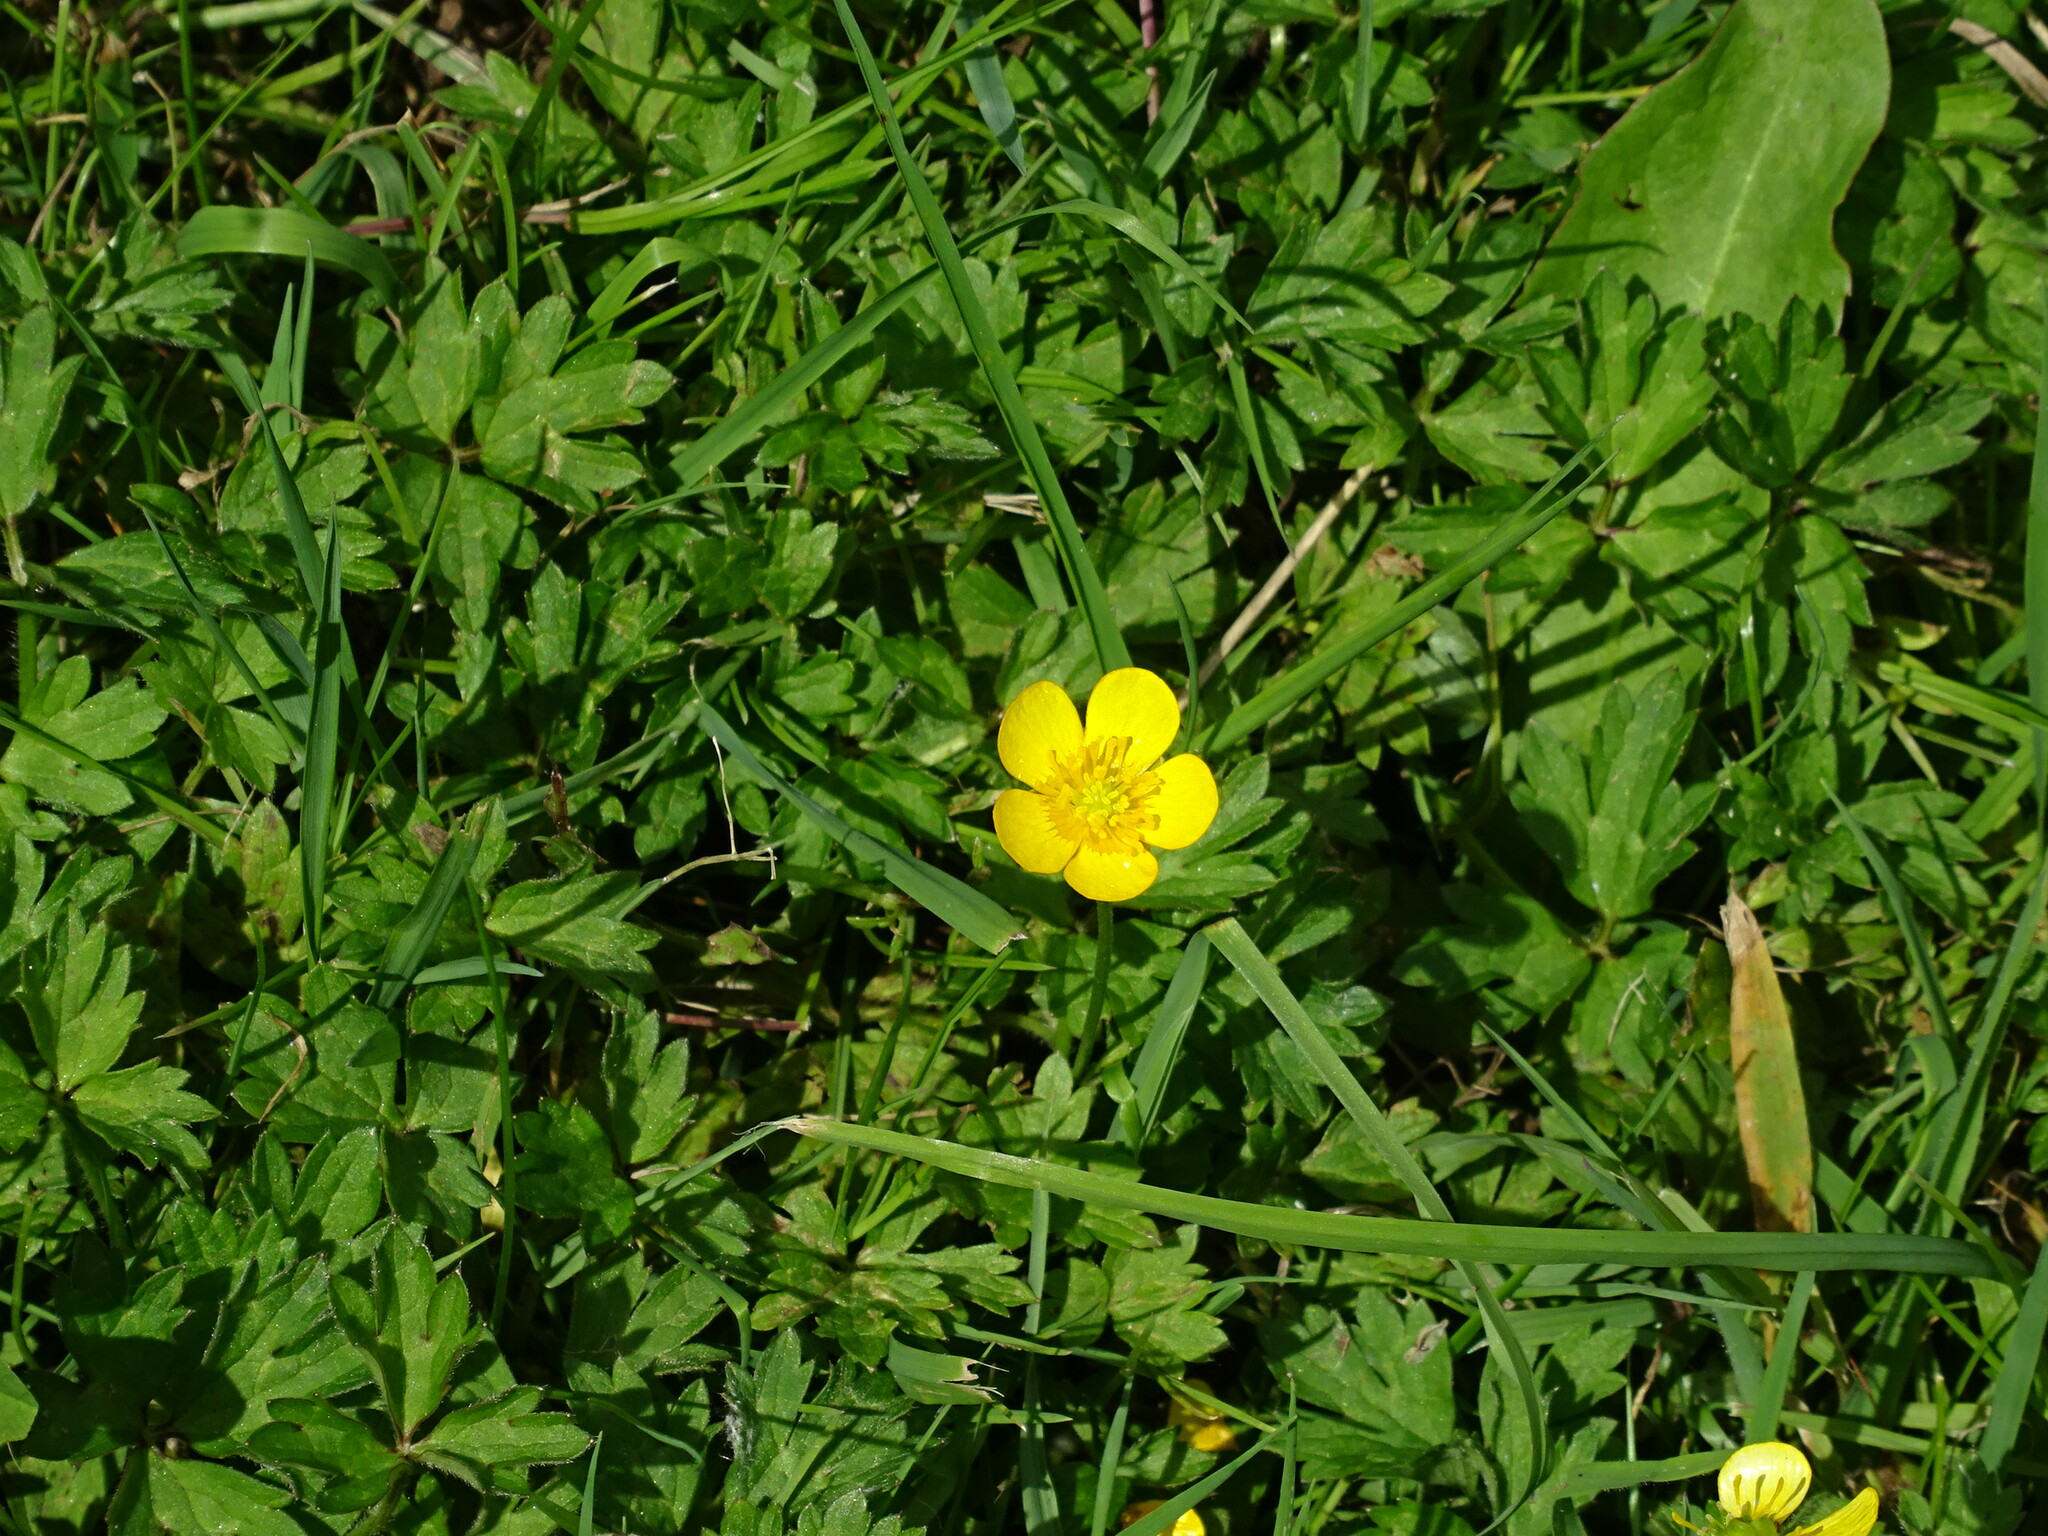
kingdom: Plantae
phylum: Tracheophyta
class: Magnoliopsida
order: Ranunculales
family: Ranunculaceae
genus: Ranunculus
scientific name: Ranunculus repens
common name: Creeping buttercup
